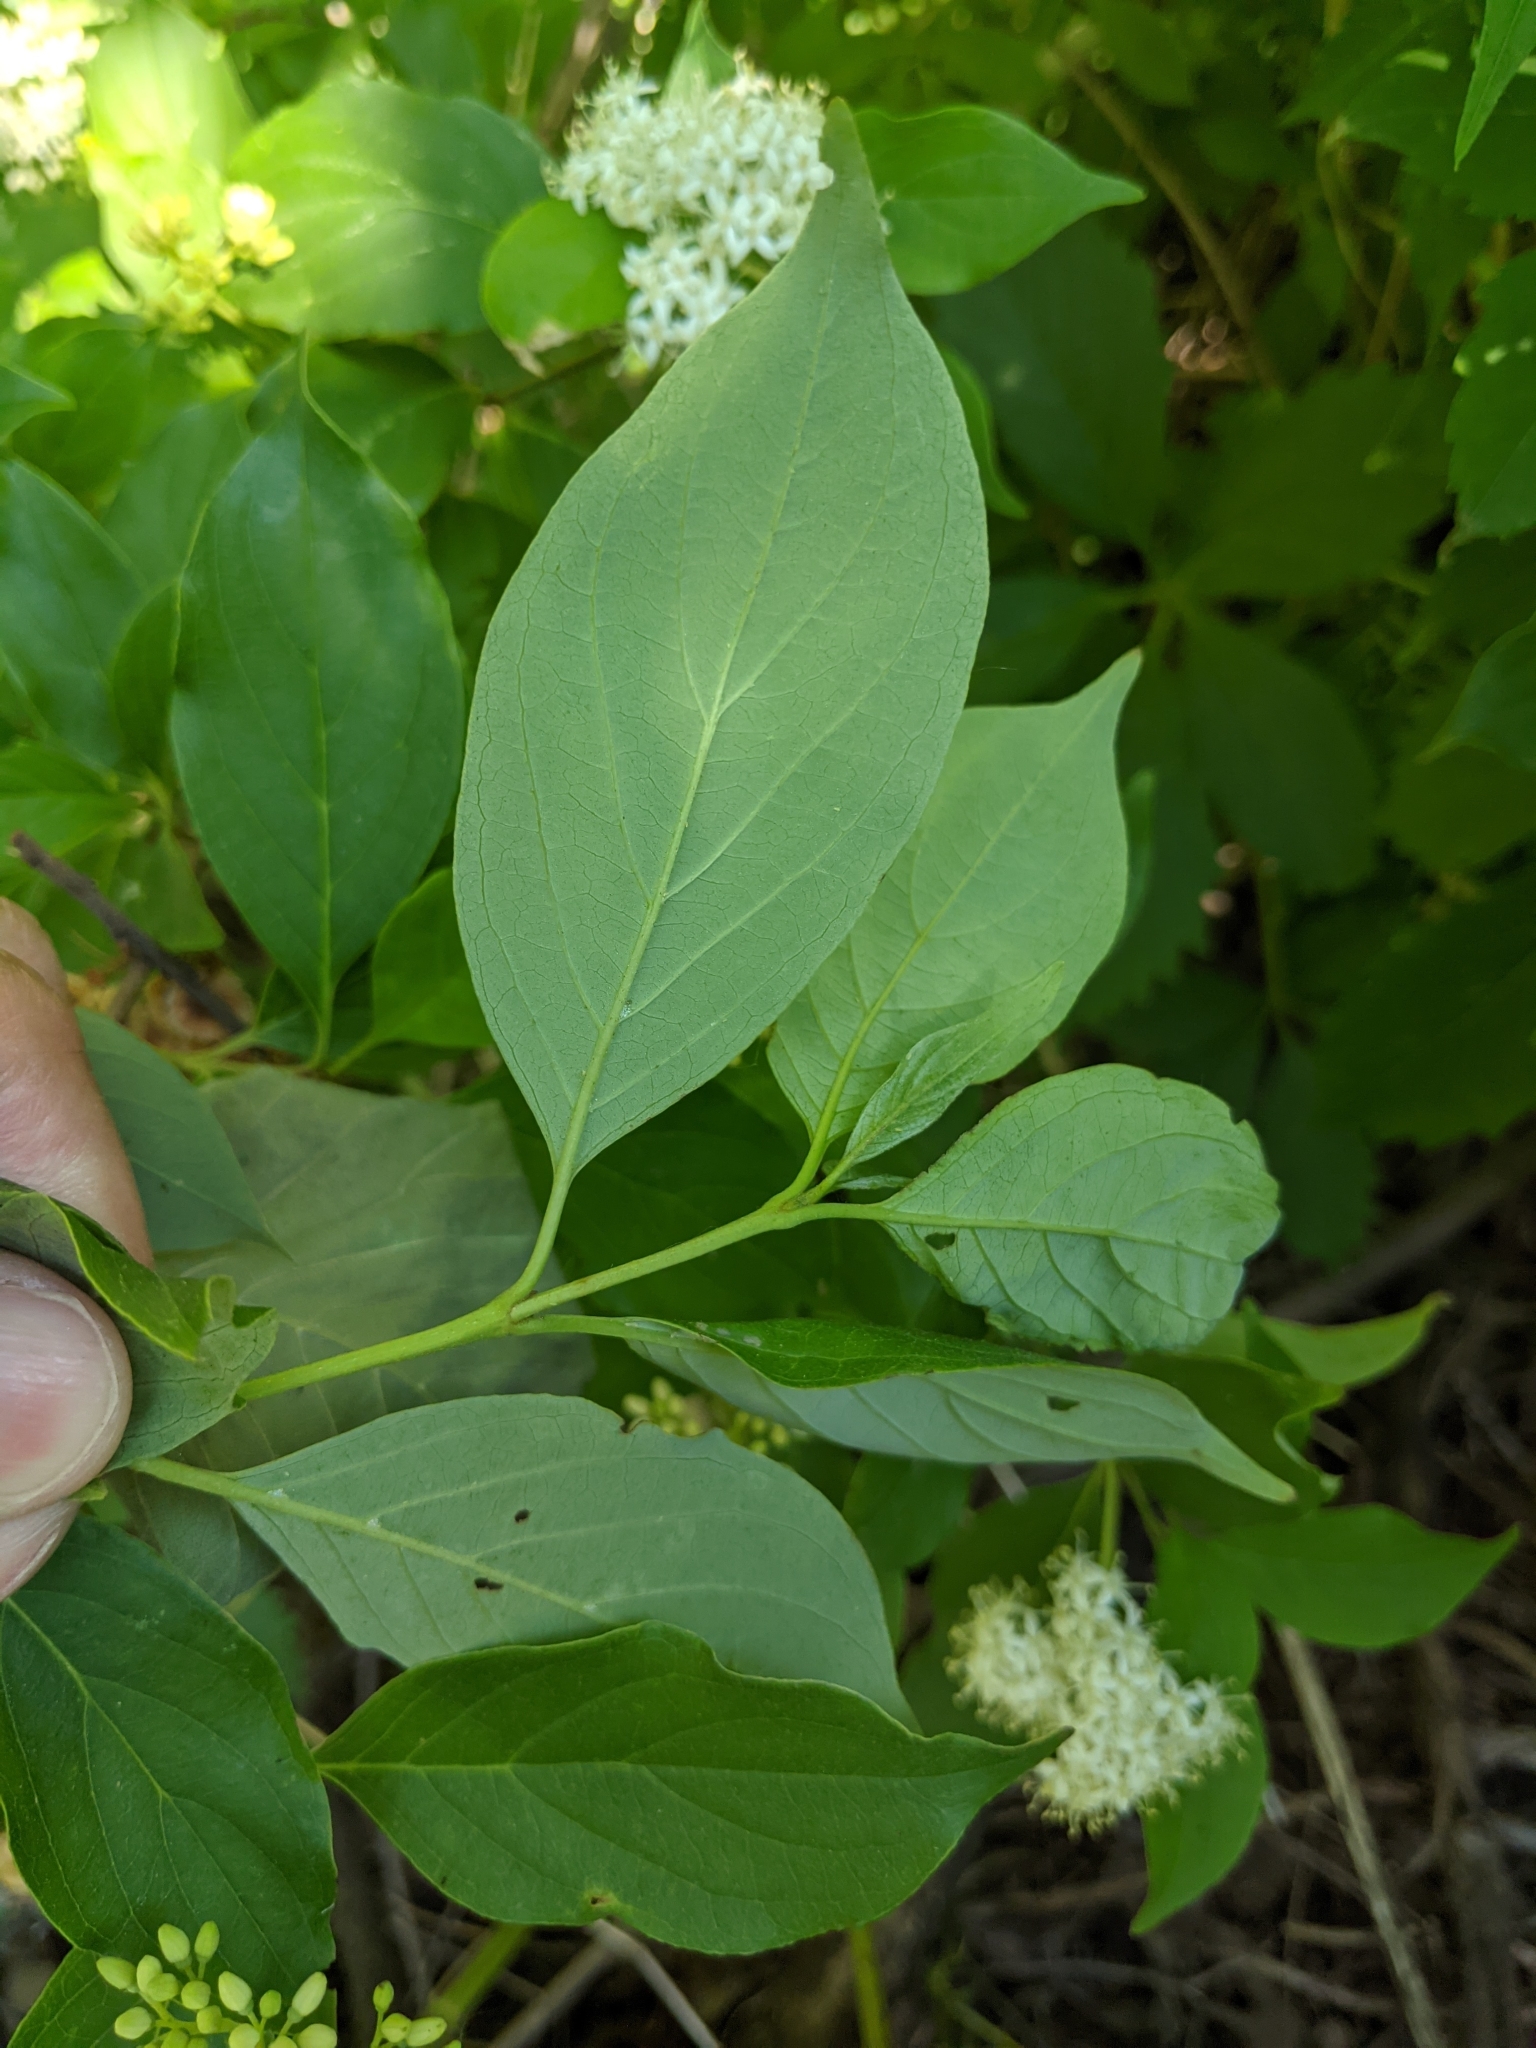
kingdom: Plantae
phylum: Tracheophyta
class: Magnoliopsida
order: Cornales
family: Cornaceae
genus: Cornus
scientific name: Cornus amomum
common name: Silky dogwood
